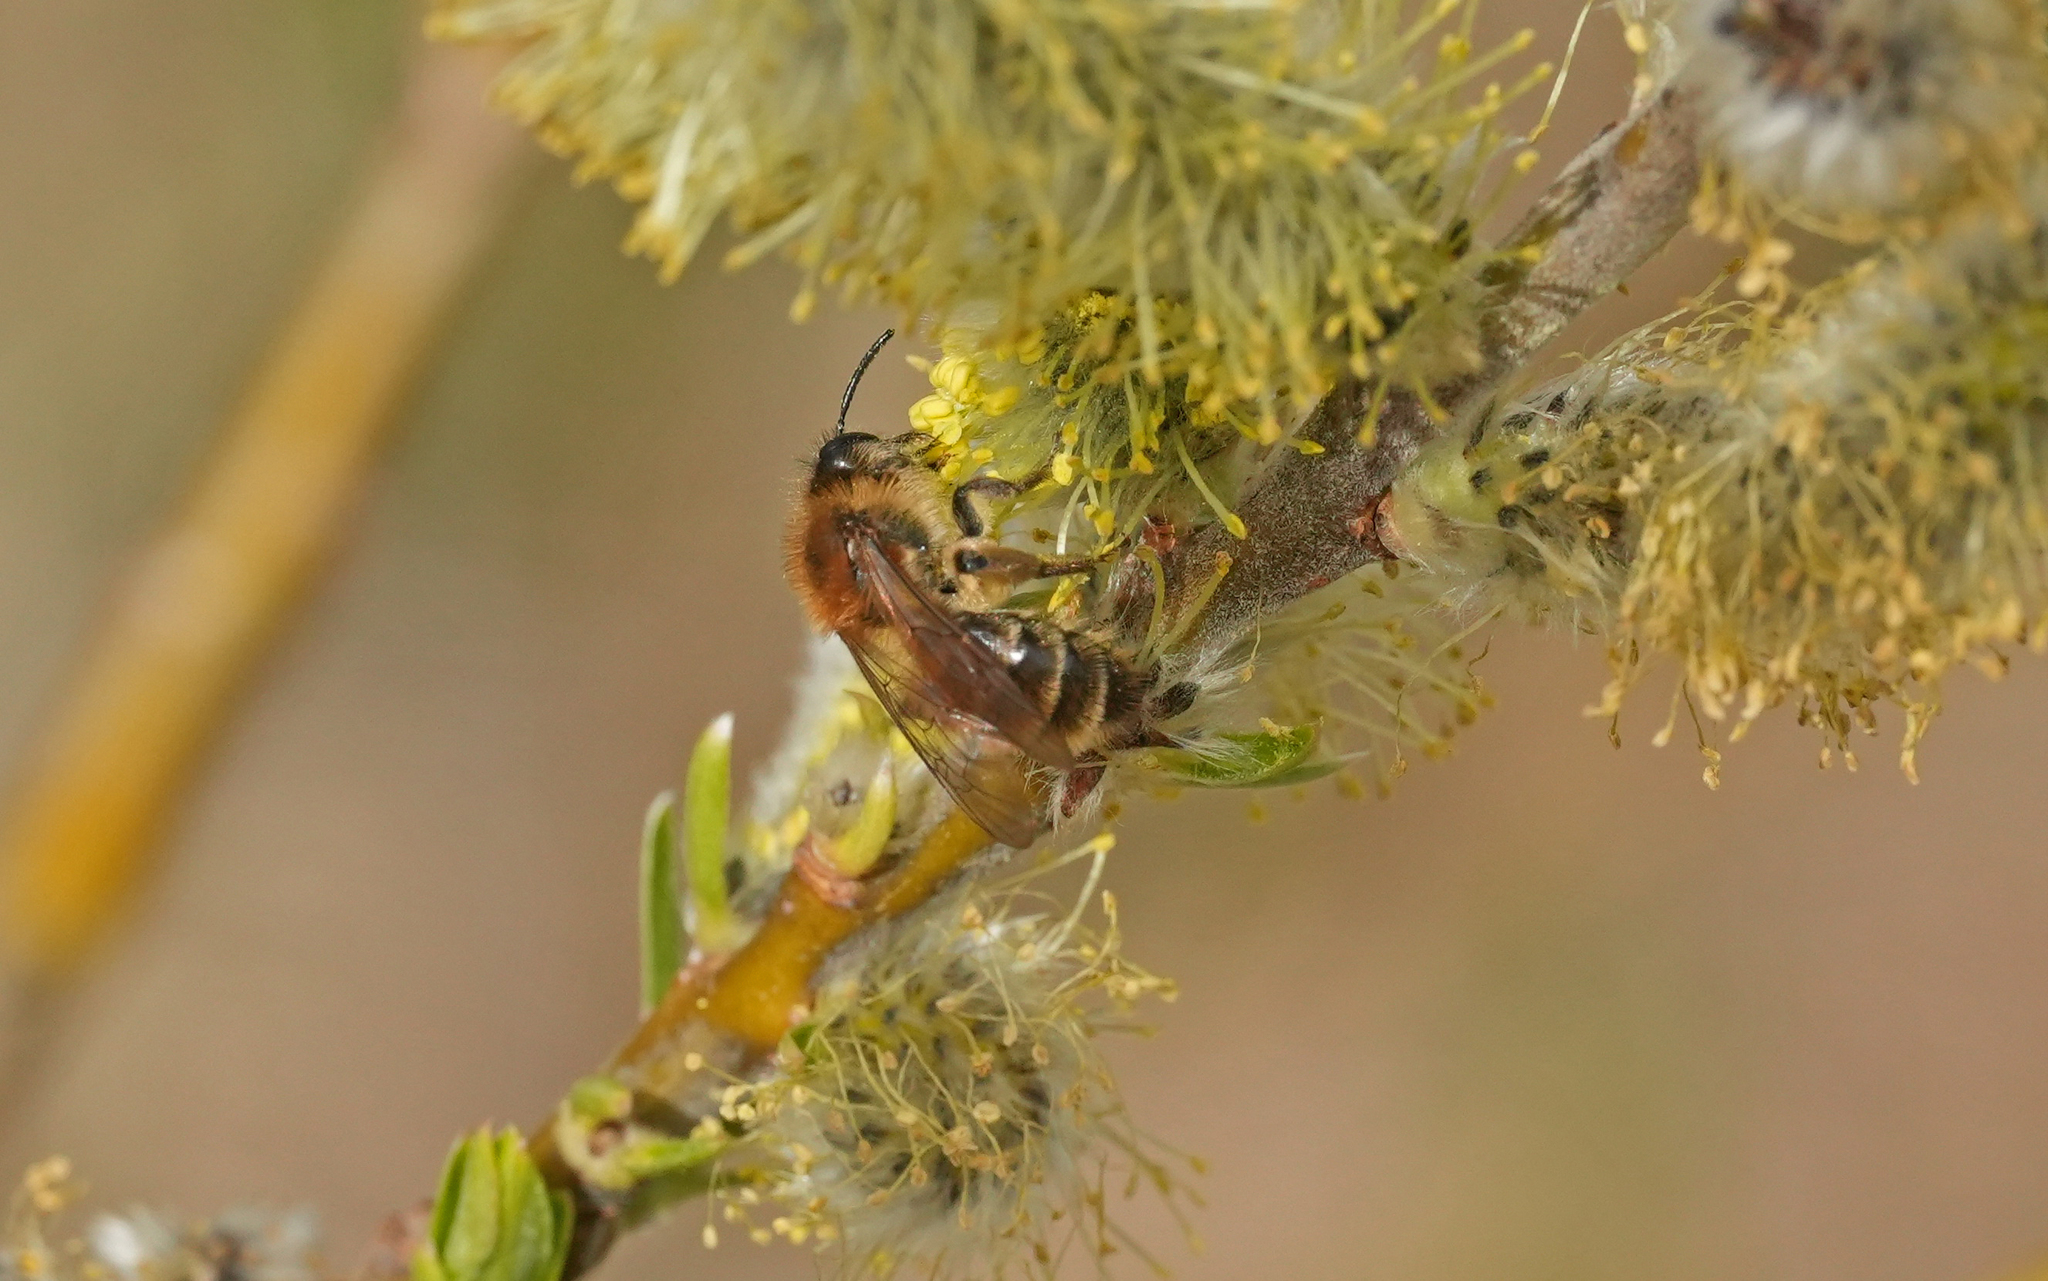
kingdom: Animalia
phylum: Arthropoda
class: Insecta
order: Hymenoptera
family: Andrenidae
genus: Andrena
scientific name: Andrena praecox
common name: Small sallow mining bee
